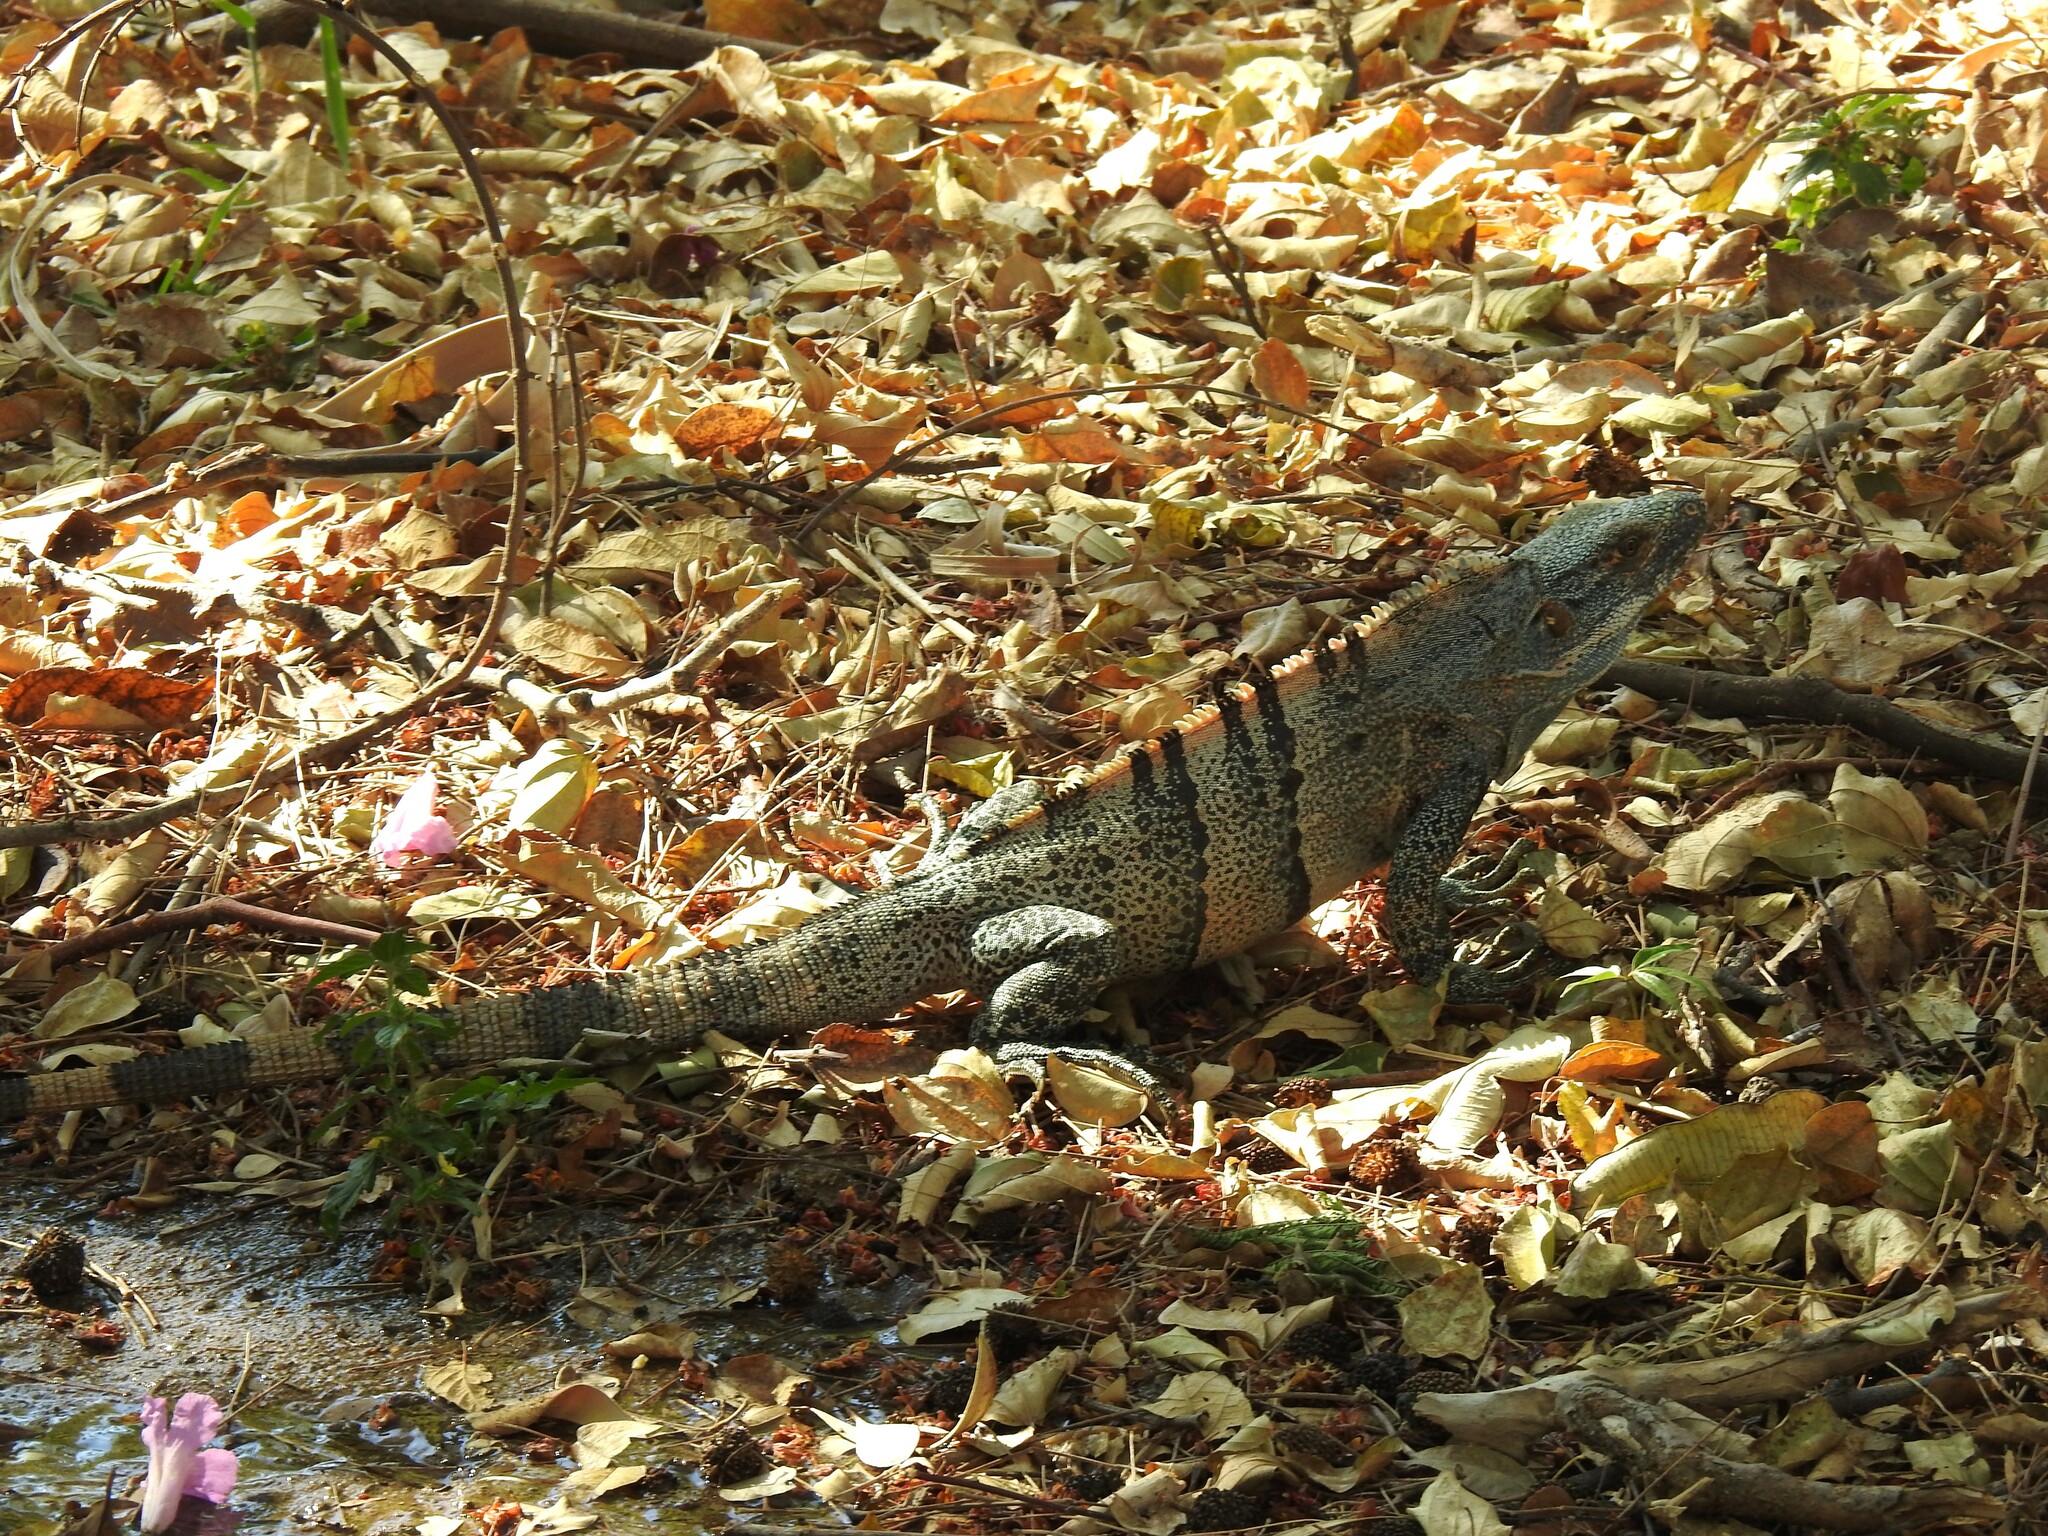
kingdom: Animalia
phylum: Chordata
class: Squamata
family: Iguanidae
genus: Ctenosaura
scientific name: Ctenosaura similis
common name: Black spiny-tailed iguana
